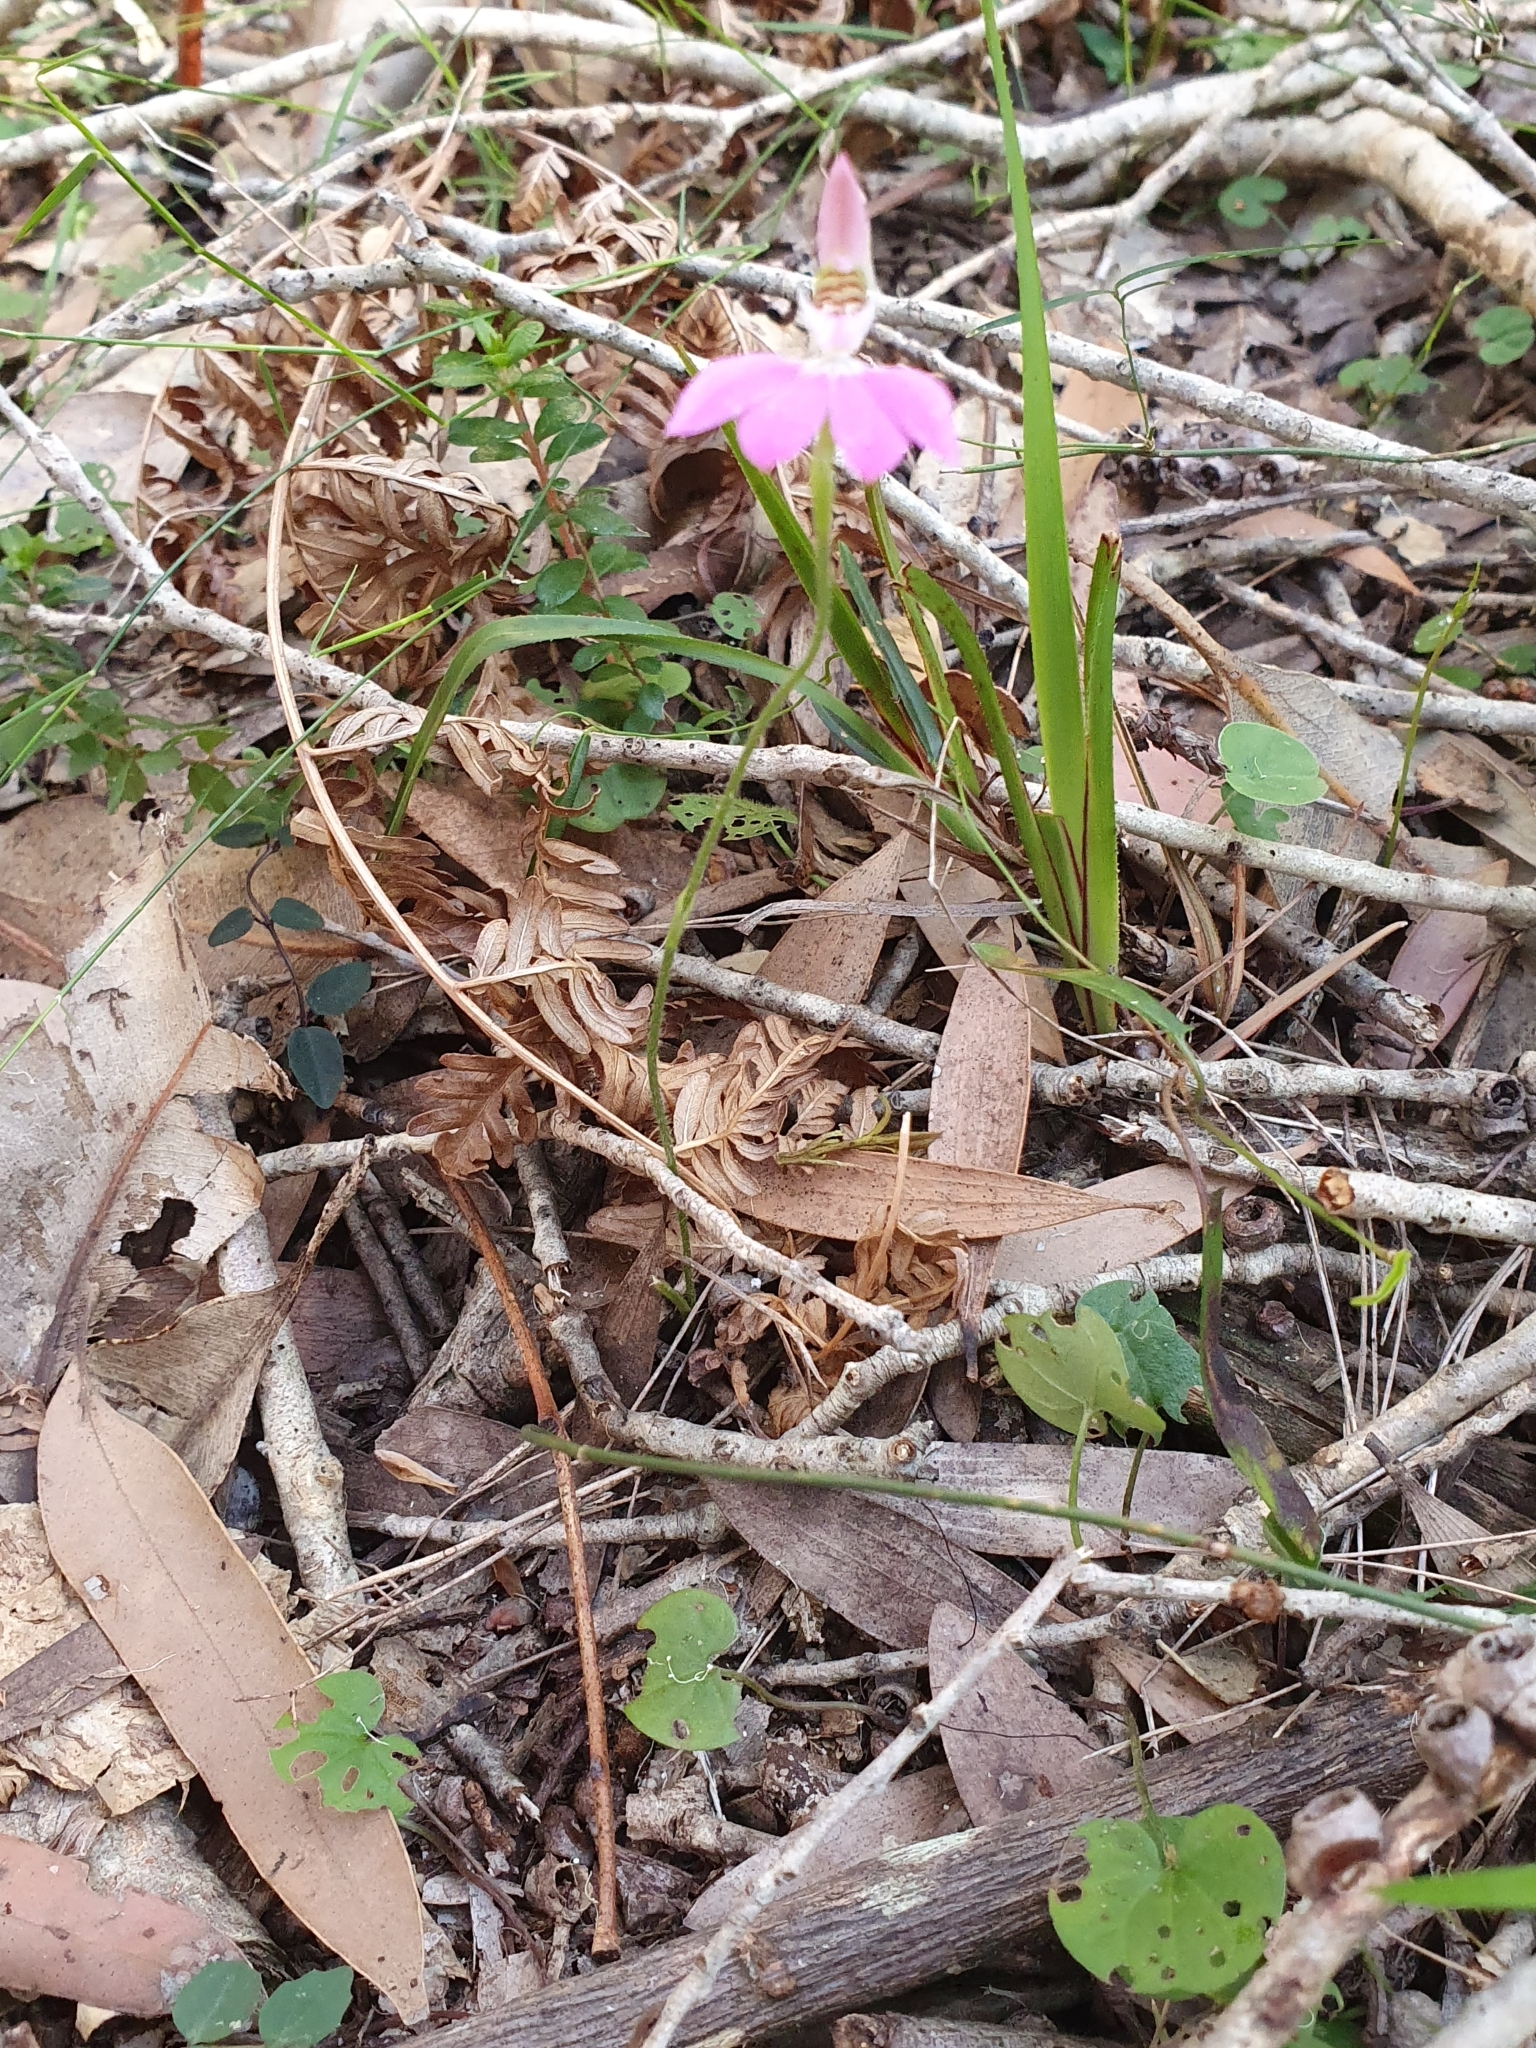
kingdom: Plantae
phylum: Tracheophyta
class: Liliopsida
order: Asparagales
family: Orchidaceae
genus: Caladenia
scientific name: Caladenia carnea
